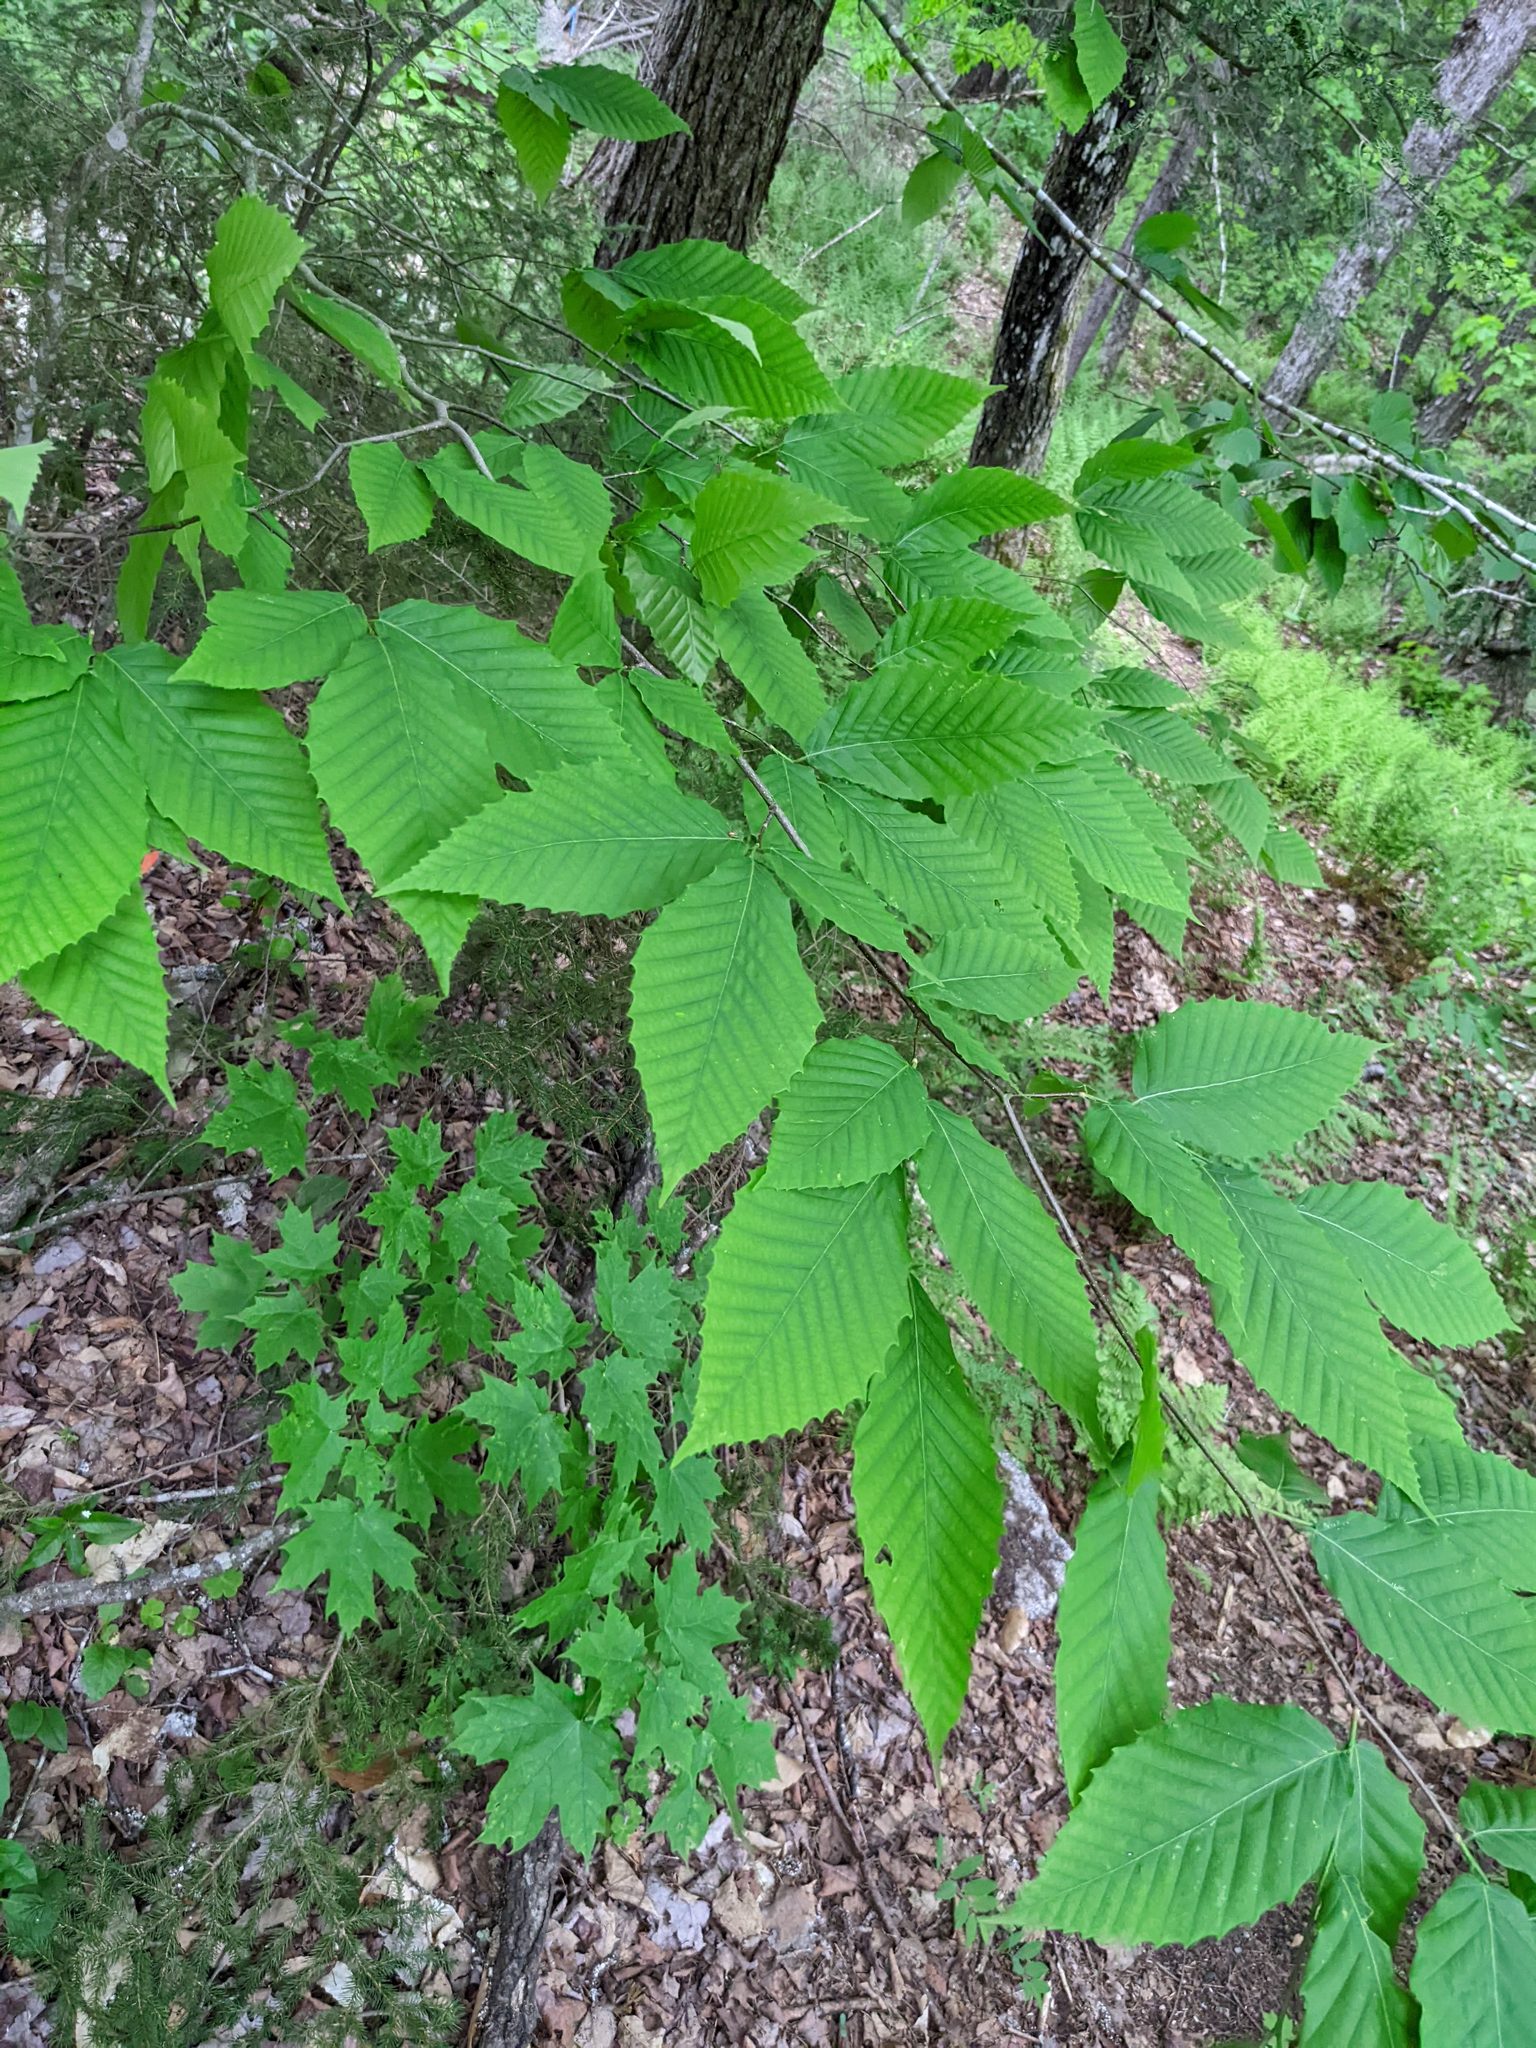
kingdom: Plantae
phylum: Tracheophyta
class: Magnoliopsida
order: Fagales
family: Fagaceae
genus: Fagus
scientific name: Fagus grandifolia
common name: American beech
